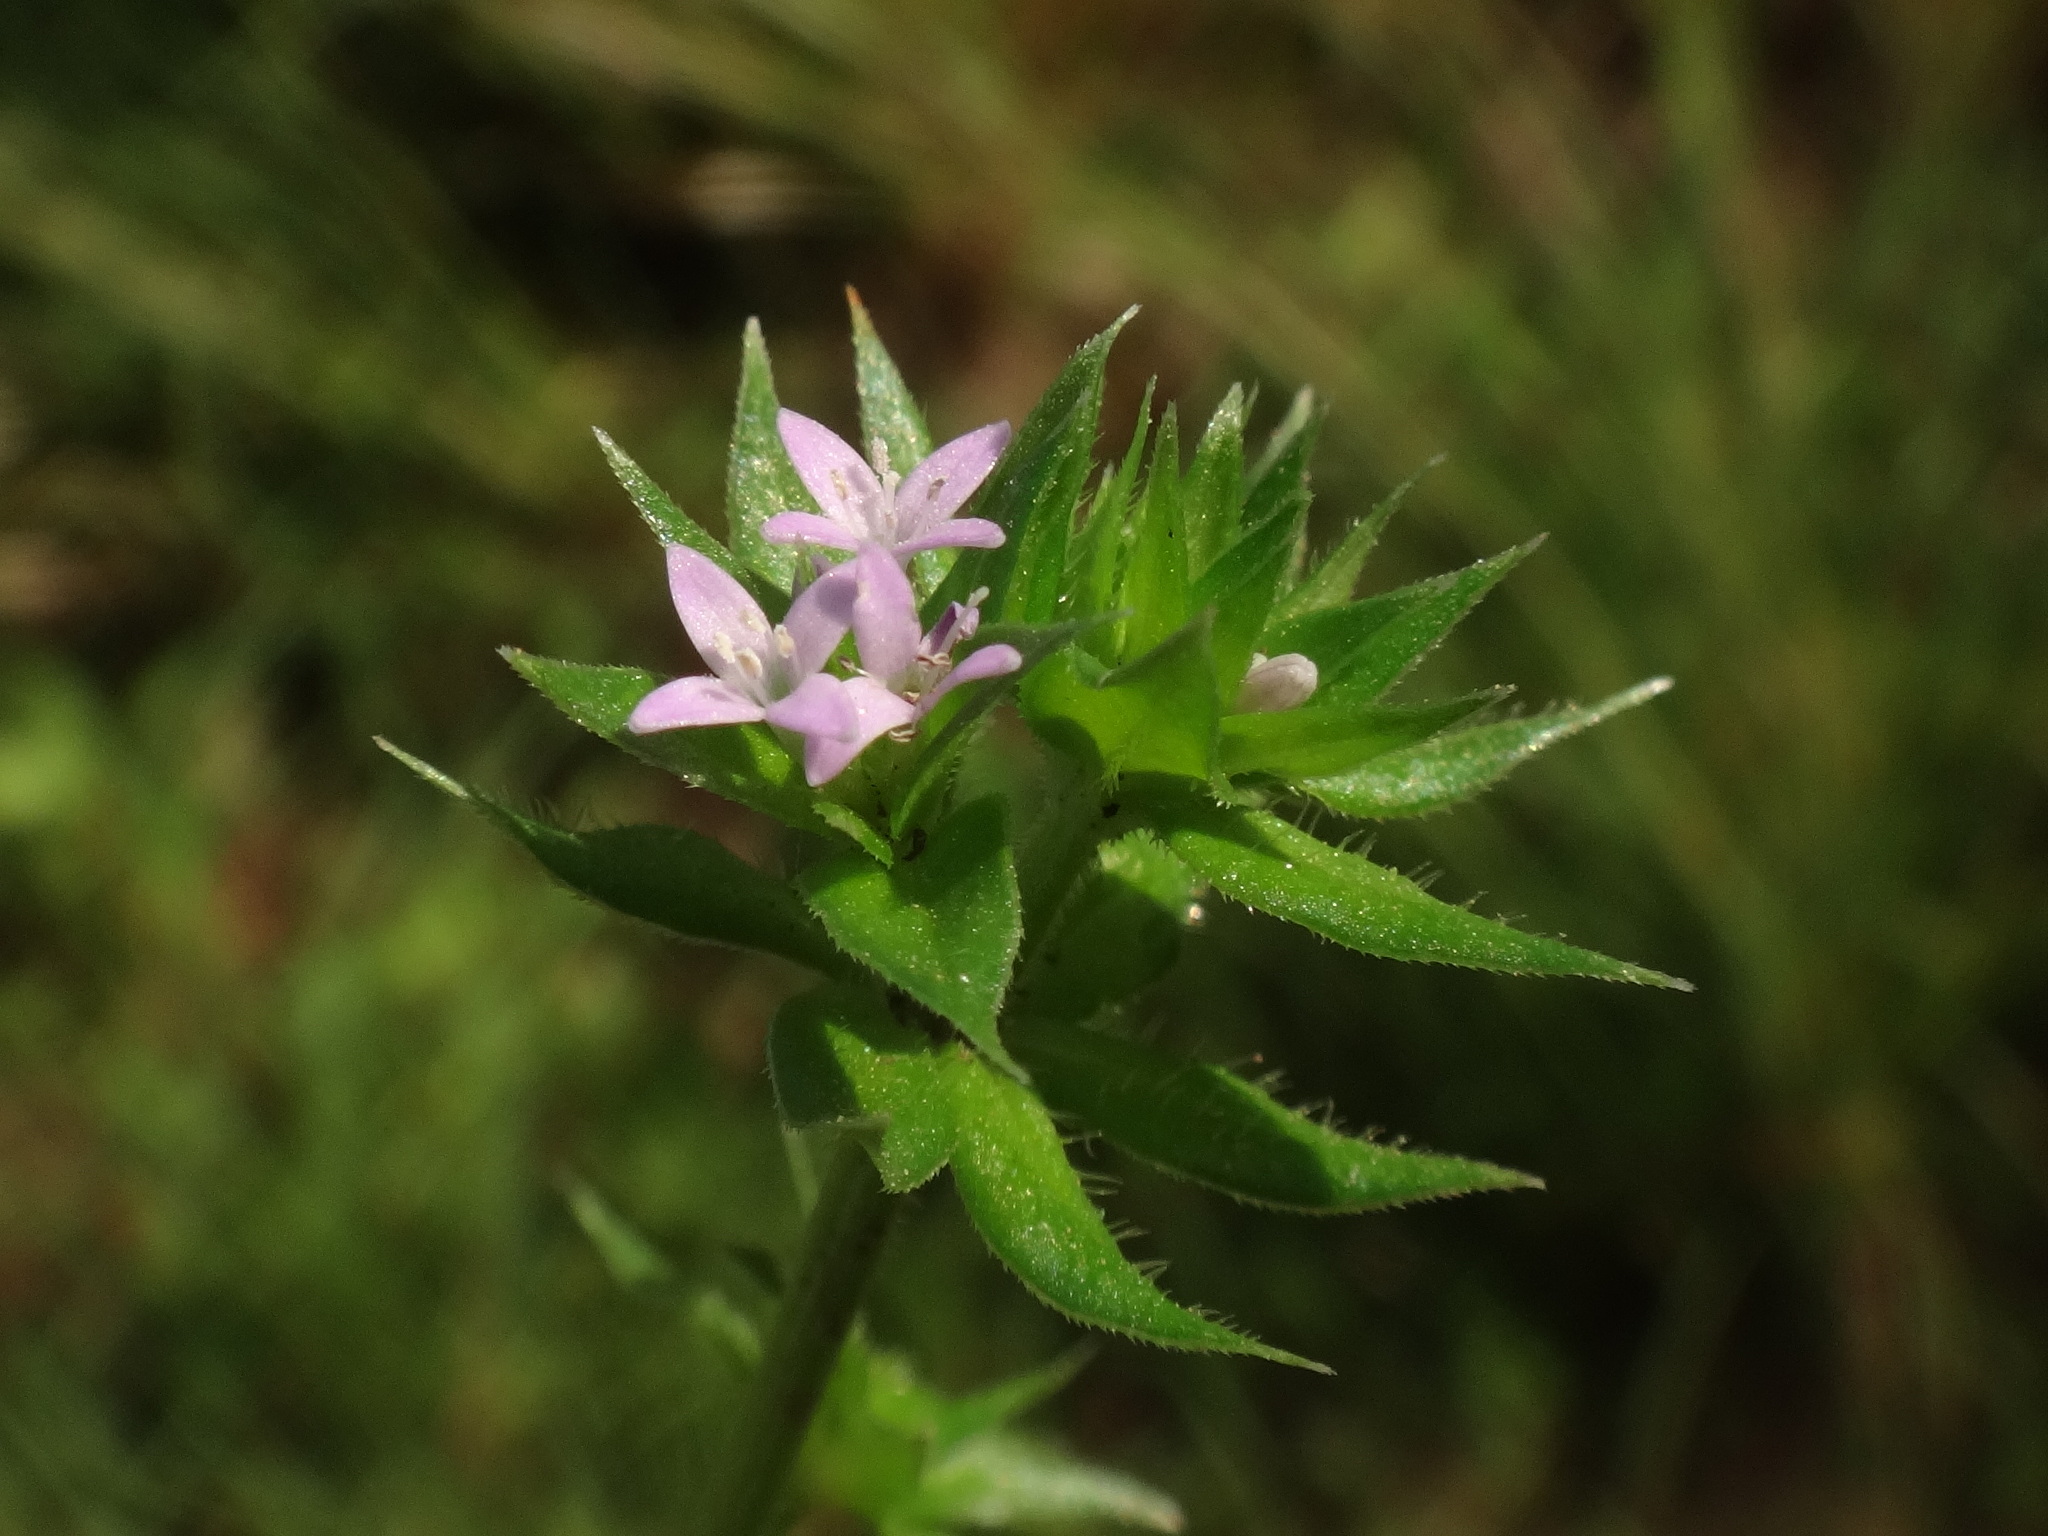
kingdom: Plantae
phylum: Tracheophyta
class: Magnoliopsida
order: Gentianales
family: Rubiaceae
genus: Sherardia
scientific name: Sherardia arvensis
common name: Field madder
